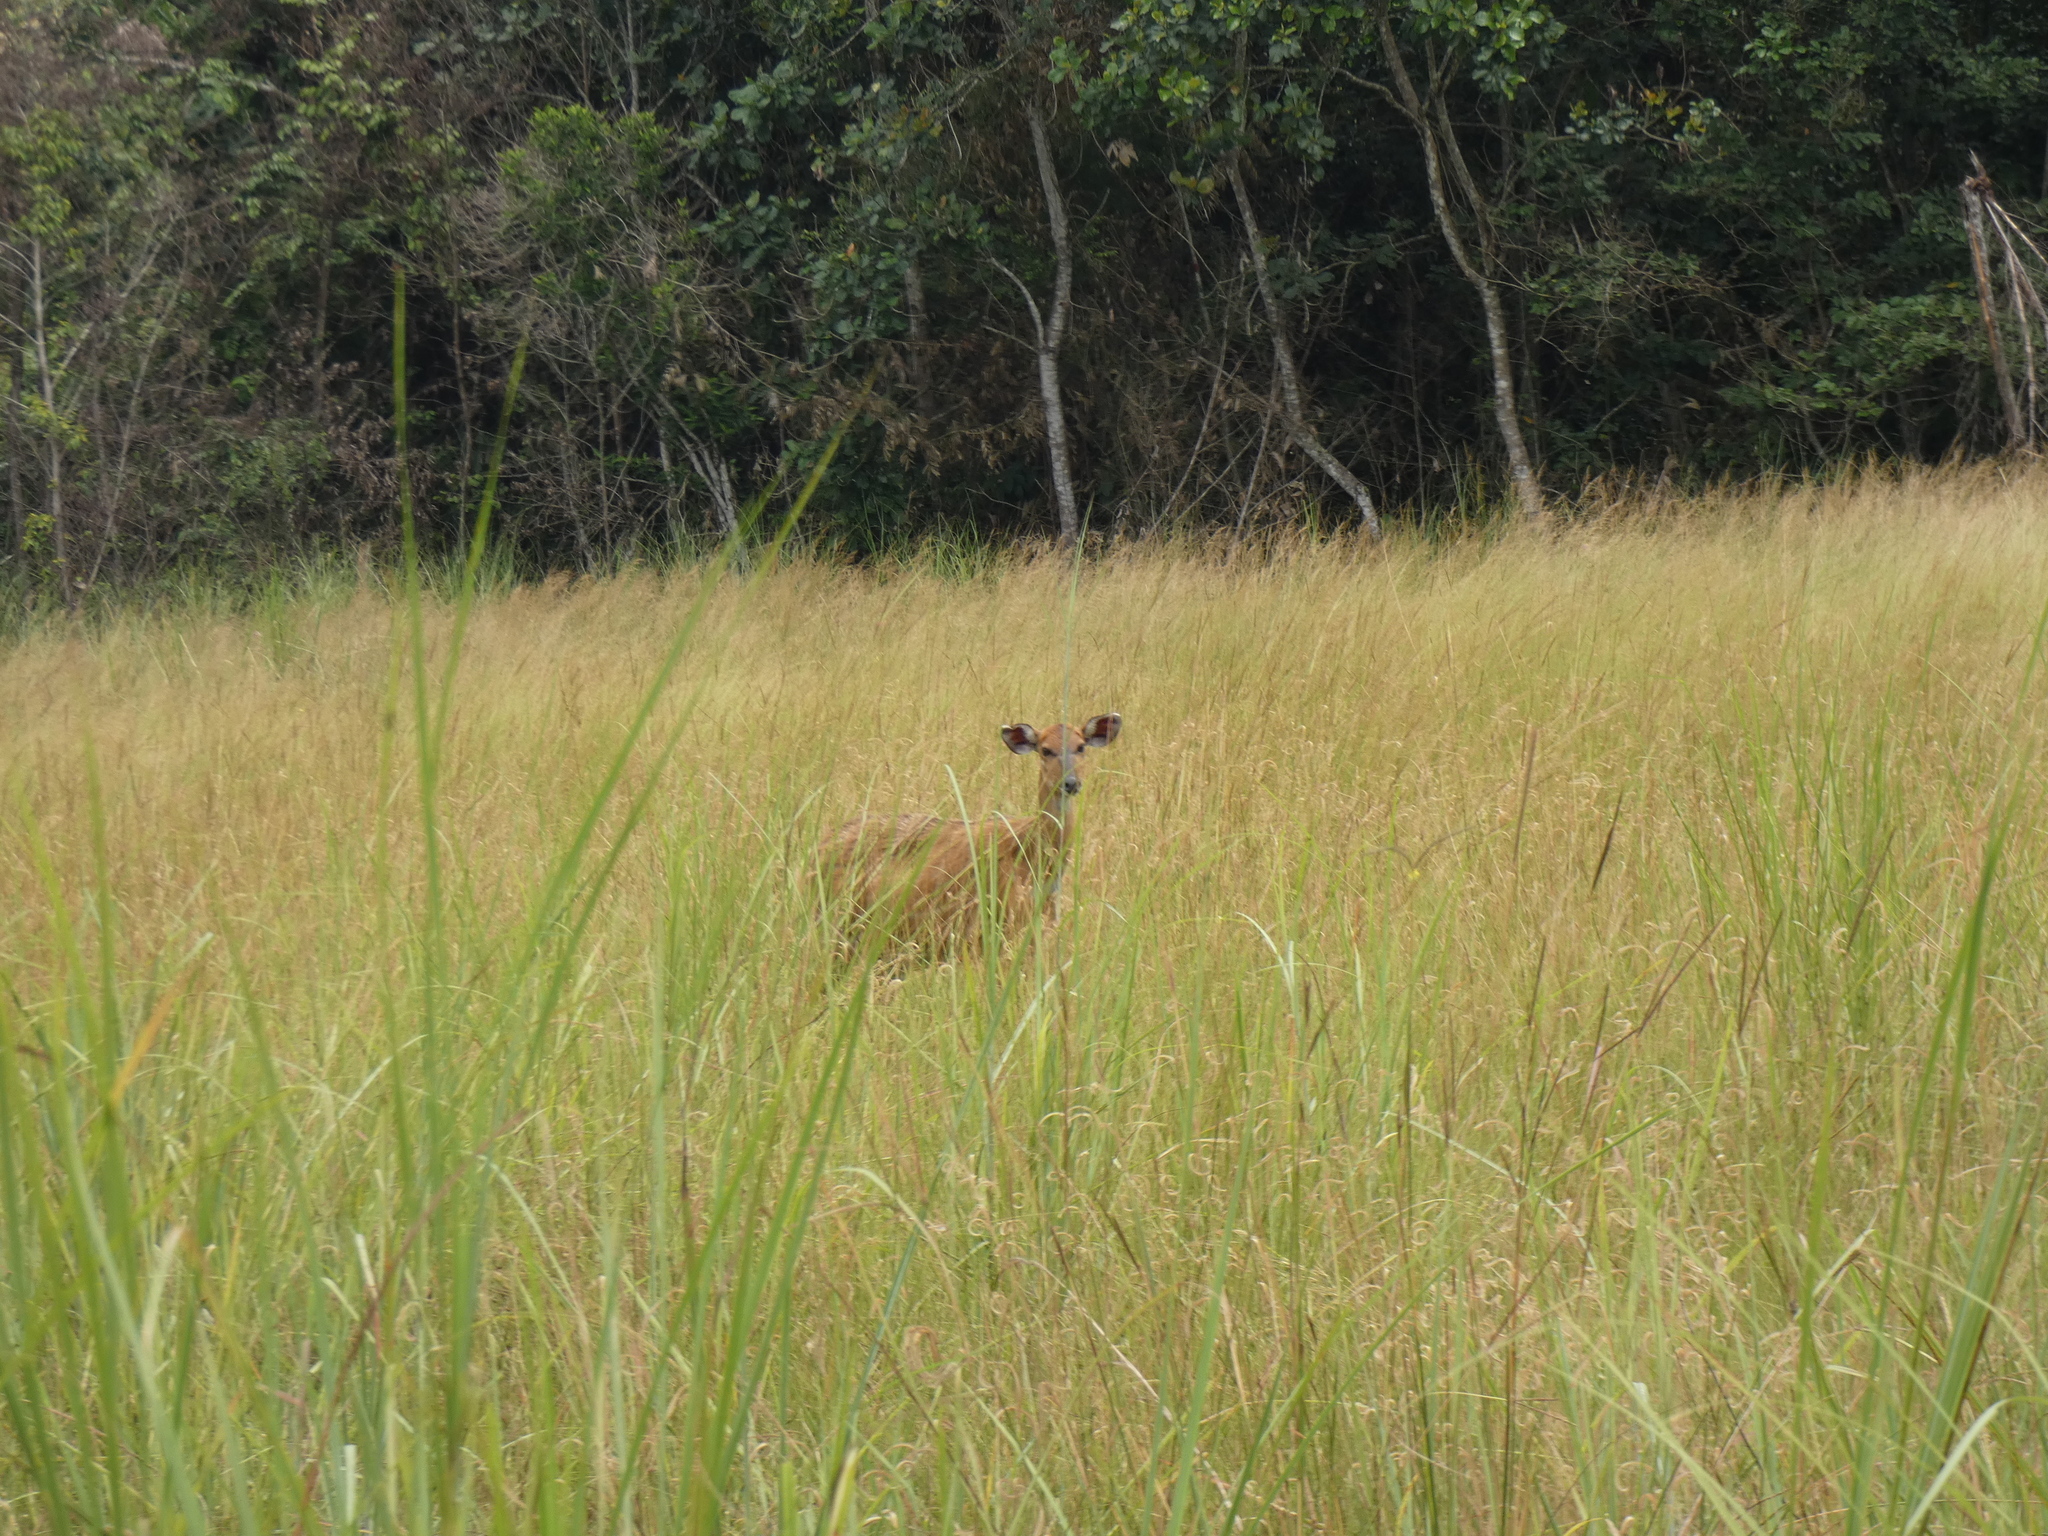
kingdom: Animalia
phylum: Chordata
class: Mammalia
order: Artiodactyla
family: Bovidae
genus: Tragelaphus
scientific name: Tragelaphus spekii
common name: Sitatunga
